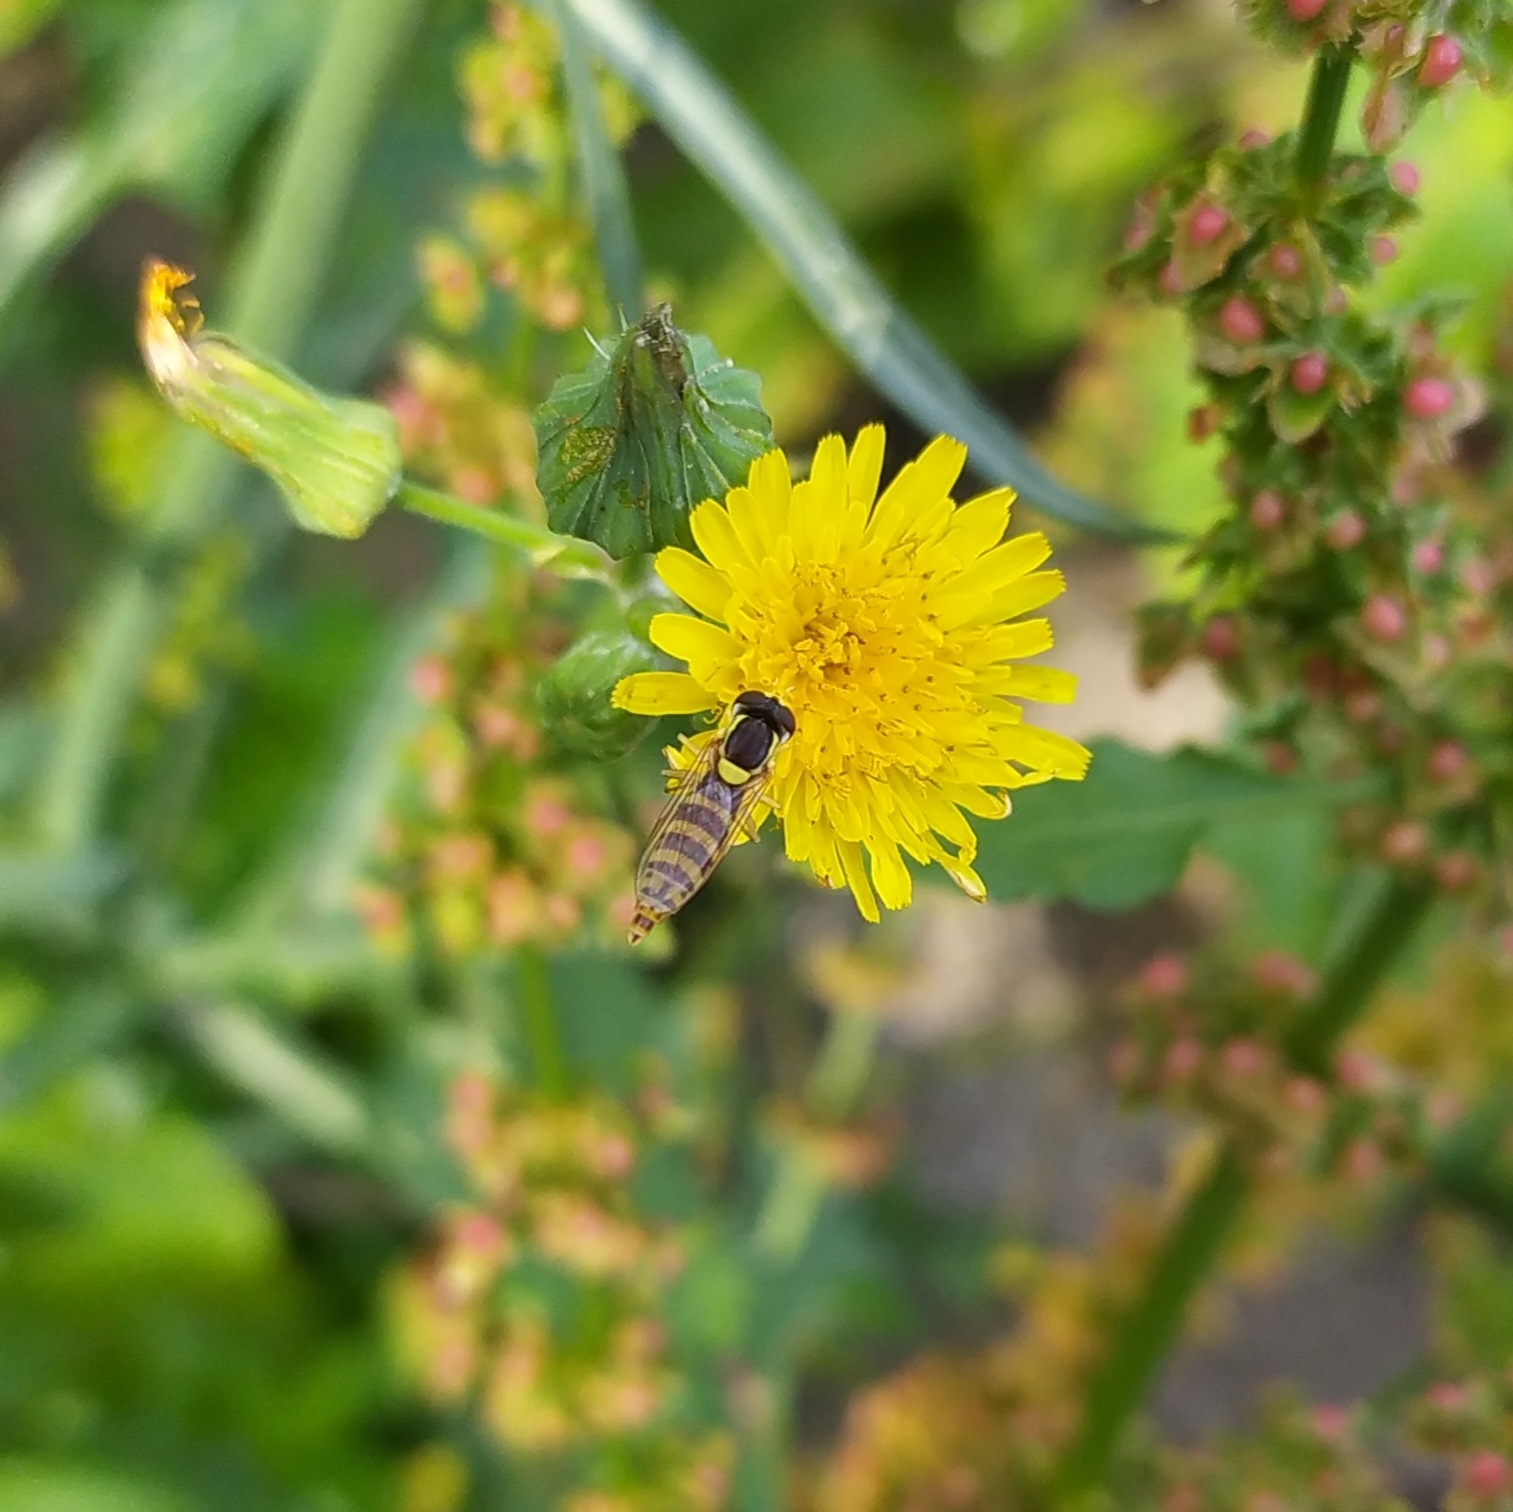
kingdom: Animalia
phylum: Arthropoda
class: Insecta
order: Diptera
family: Syrphidae
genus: Sphaerophoria
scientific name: Sphaerophoria
